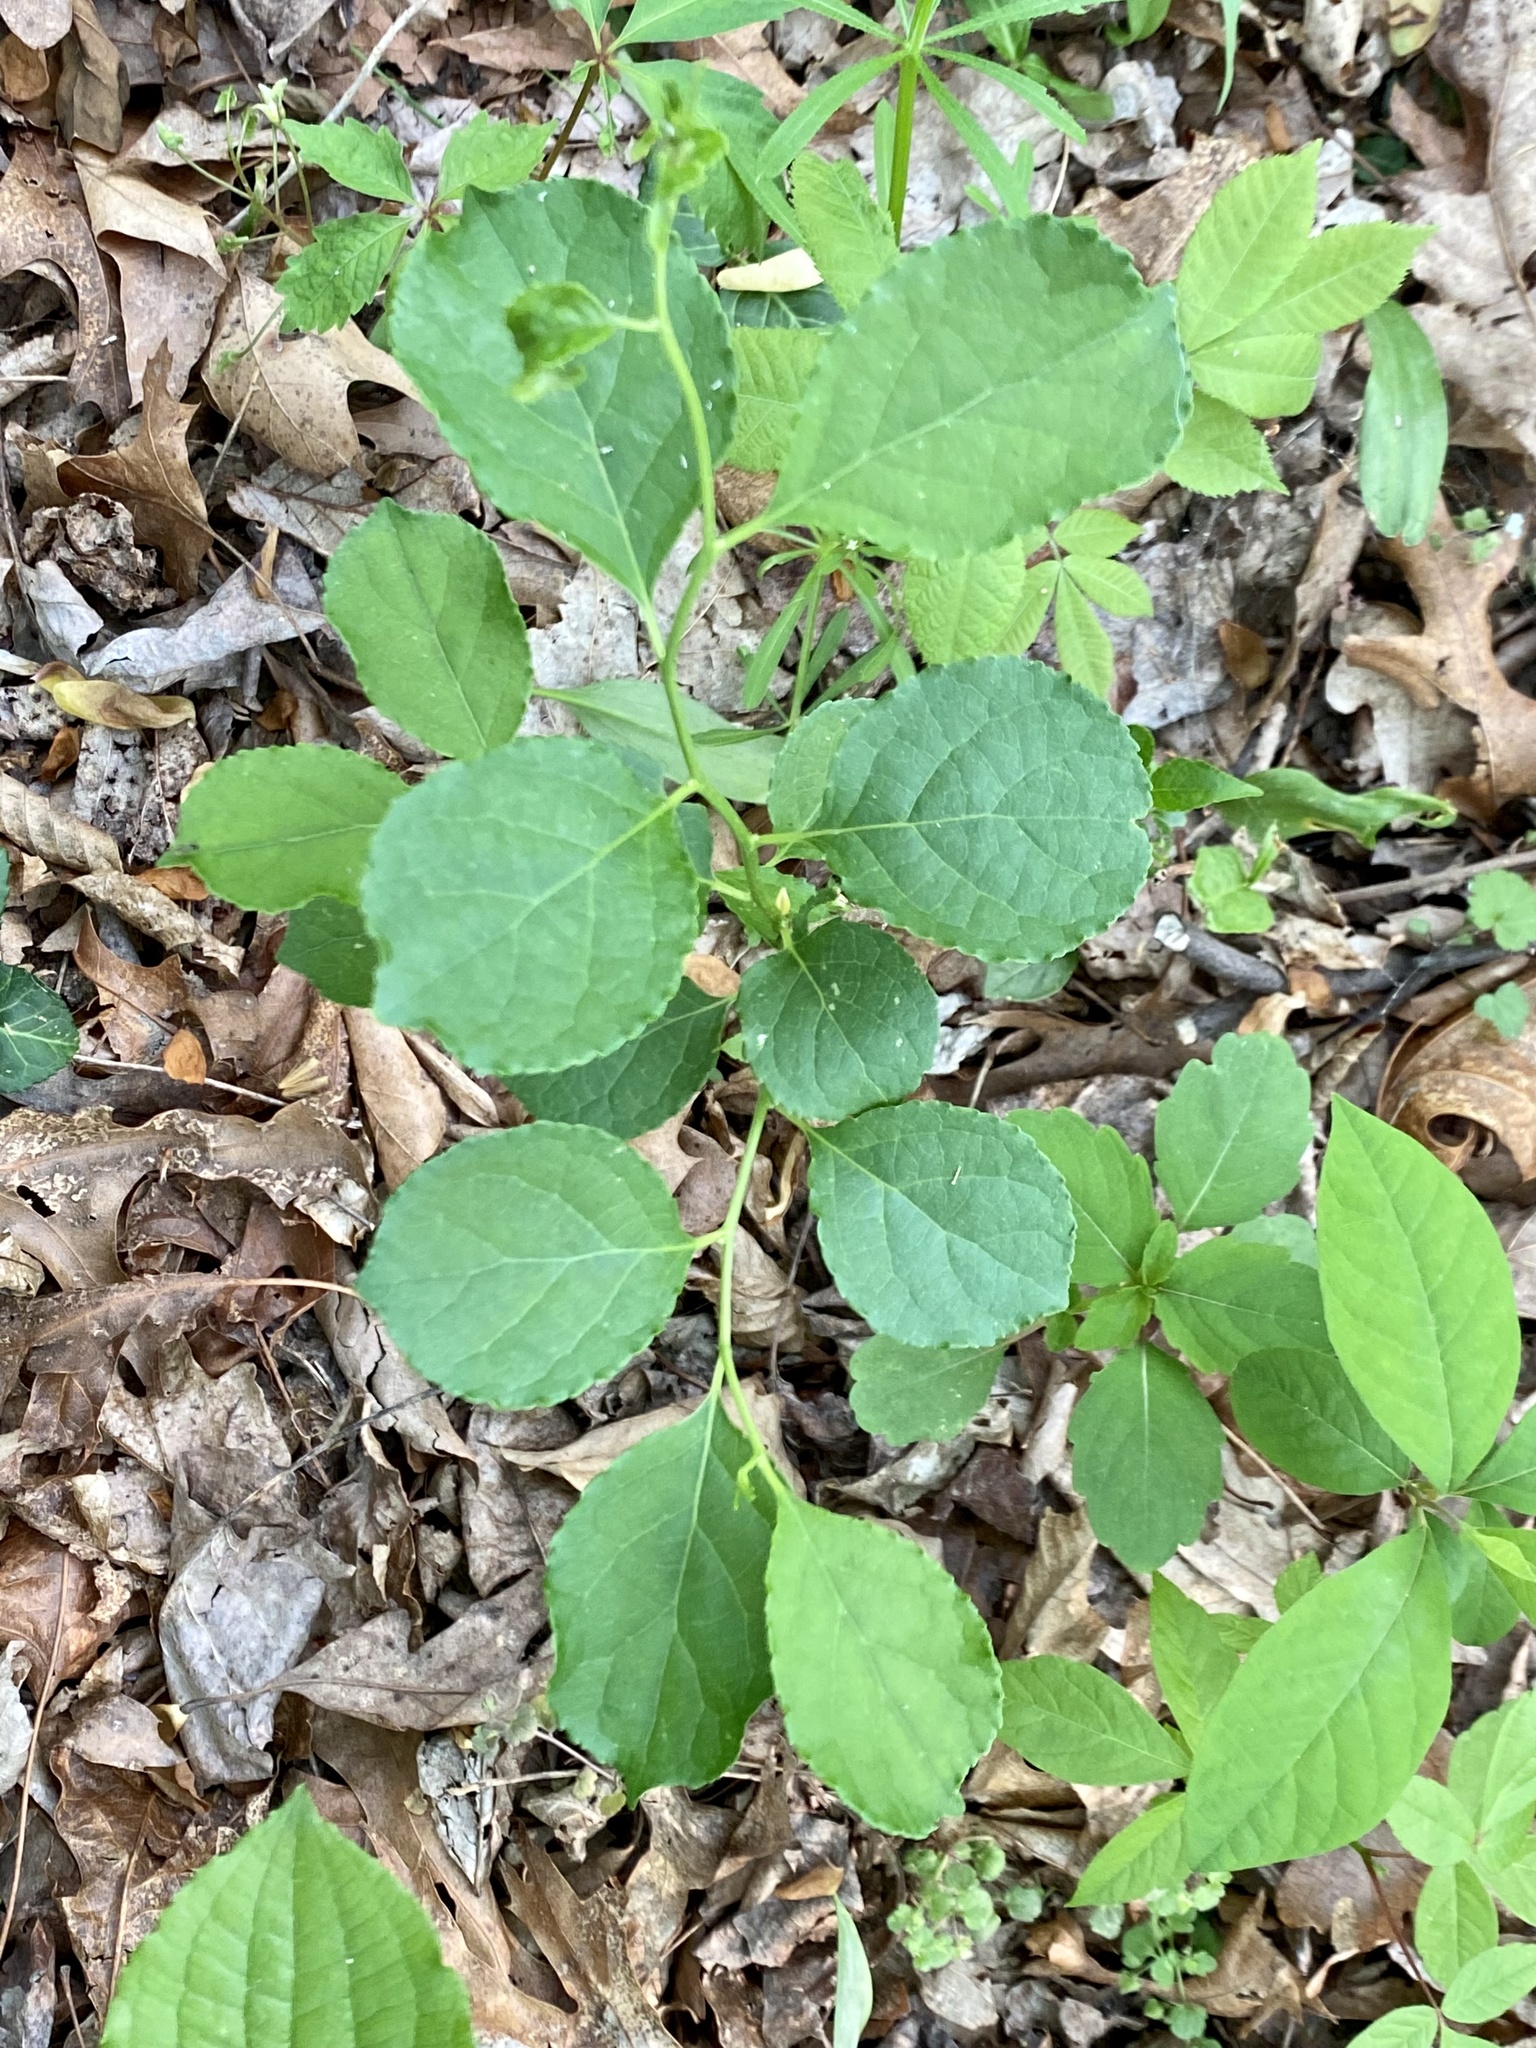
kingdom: Plantae
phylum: Tracheophyta
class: Magnoliopsida
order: Celastrales
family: Celastraceae
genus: Celastrus
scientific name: Celastrus orbiculatus
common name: Oriental bittersweet
